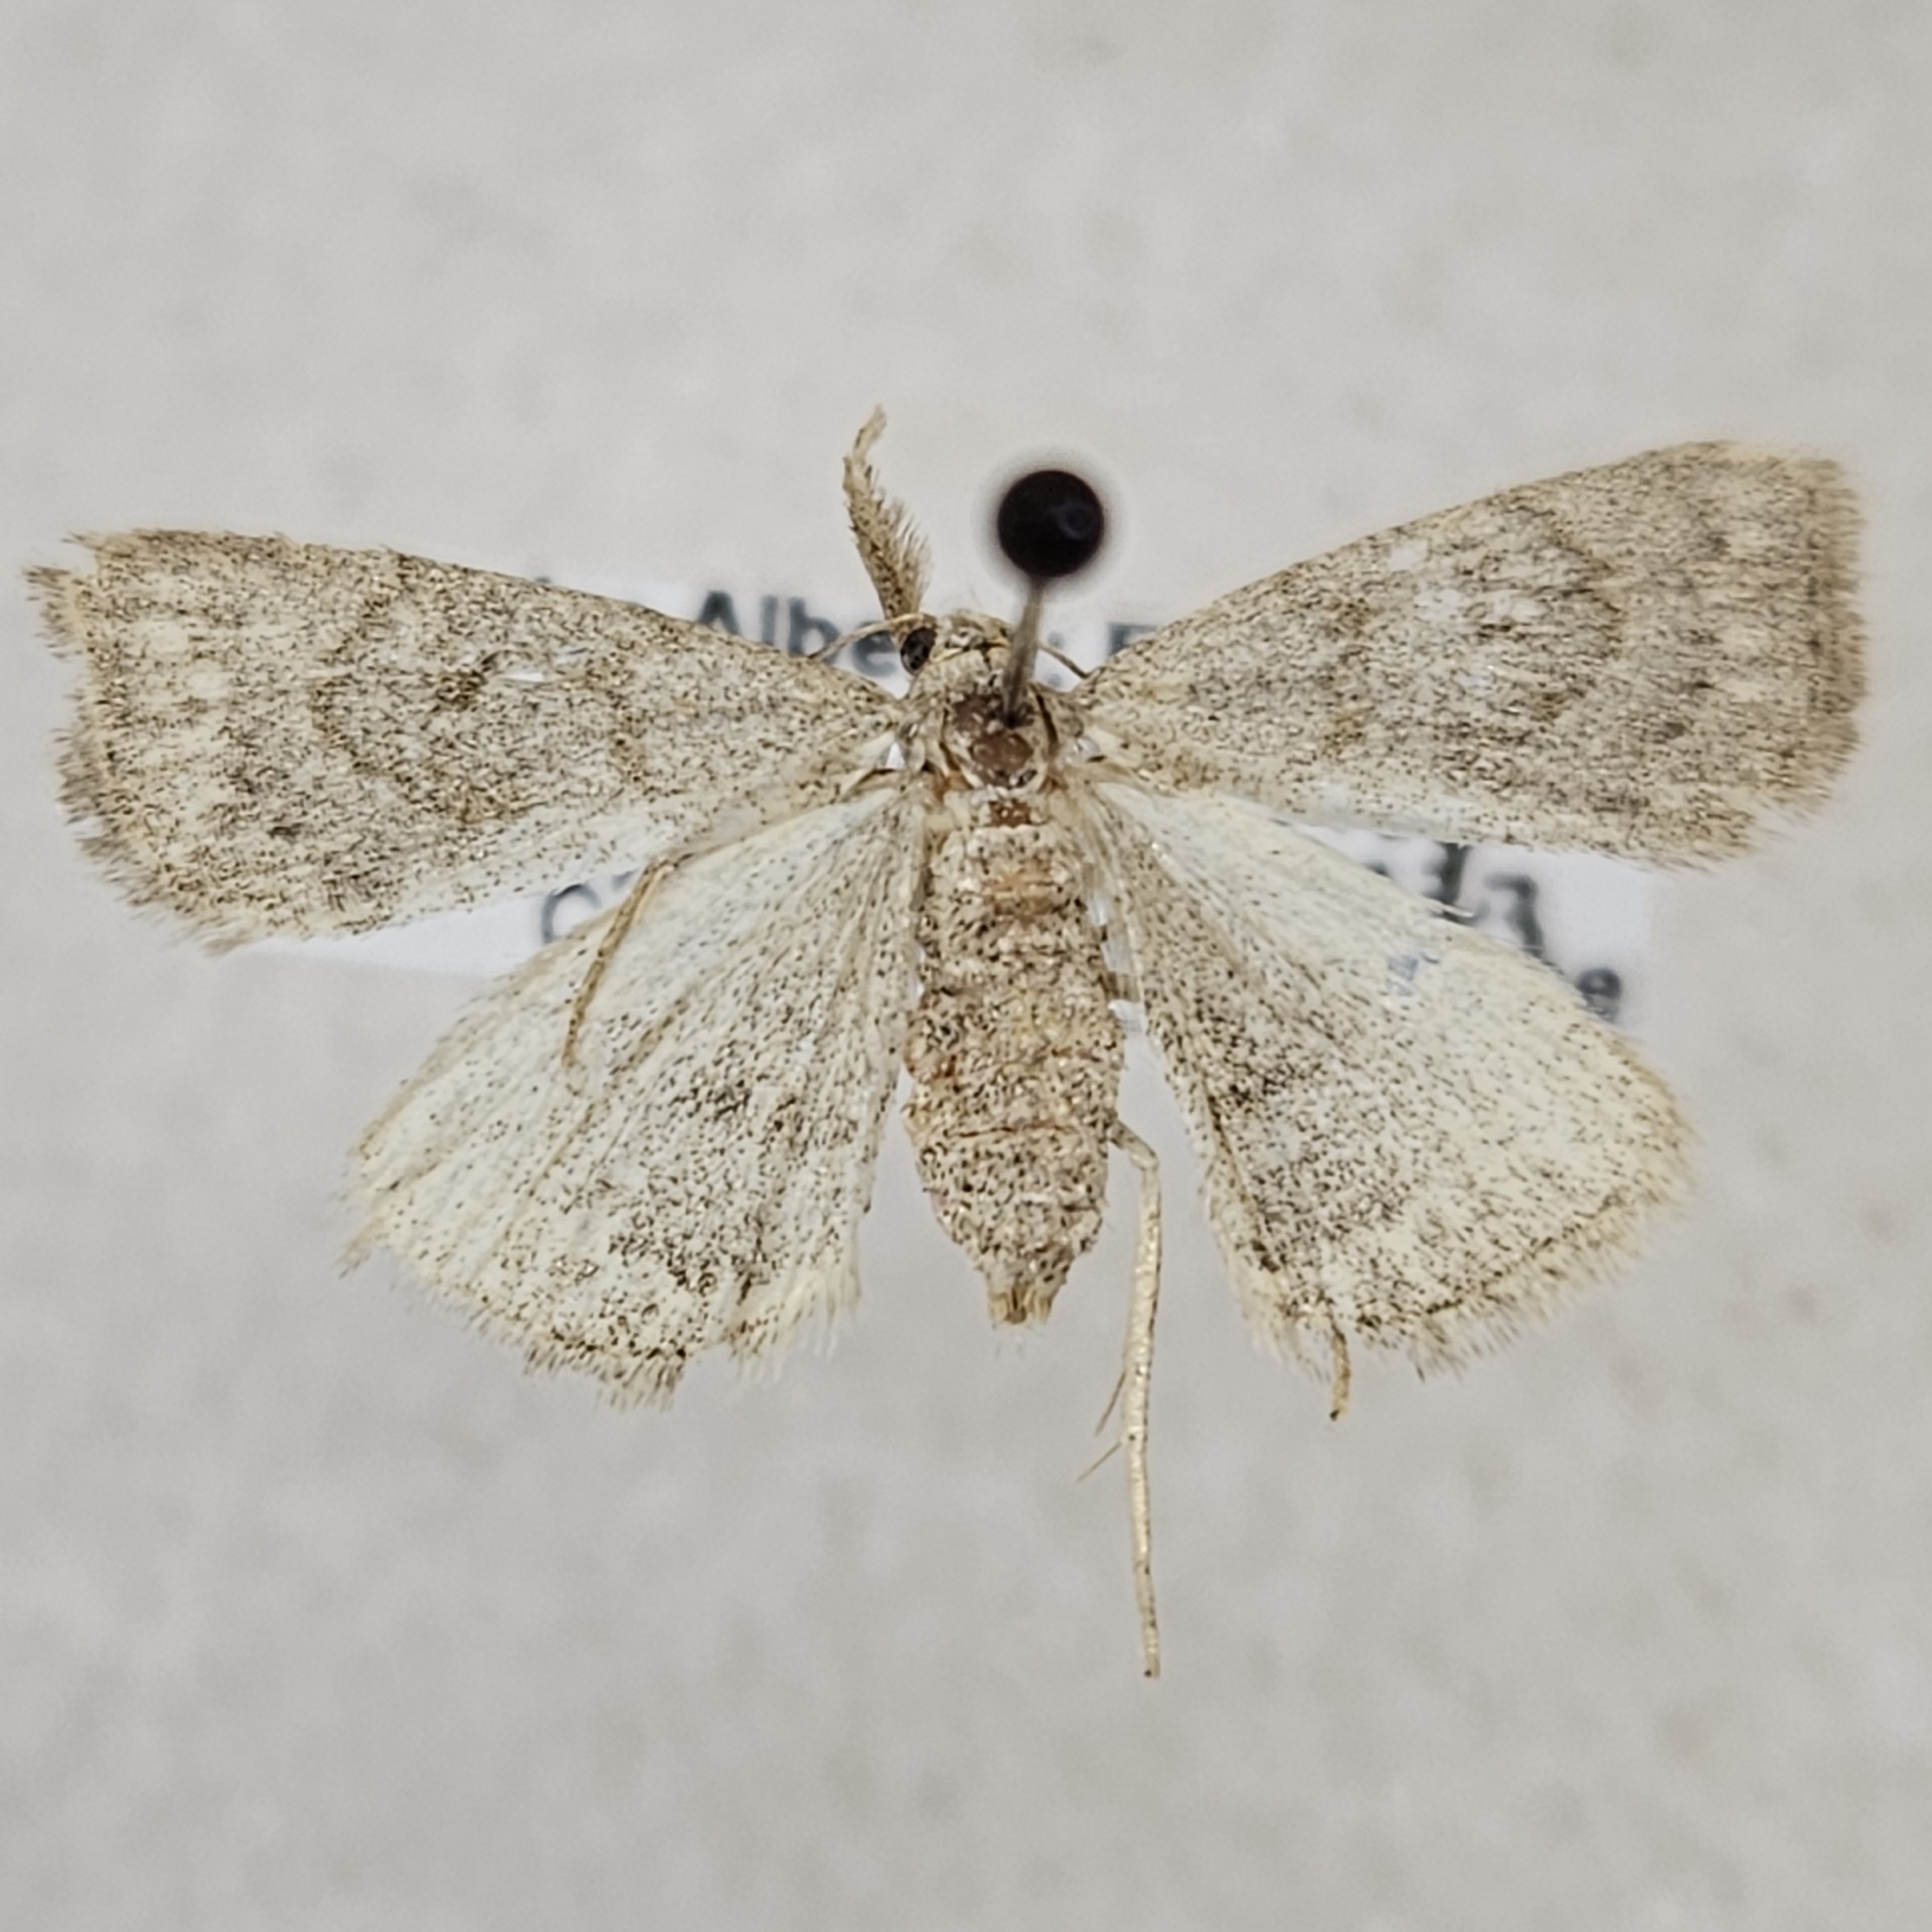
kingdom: Animalia
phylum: Arthropoda
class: Insecta
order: Lepidoptera
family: Erebidae
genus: Macrochilo
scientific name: Macrochilo morbidalis
